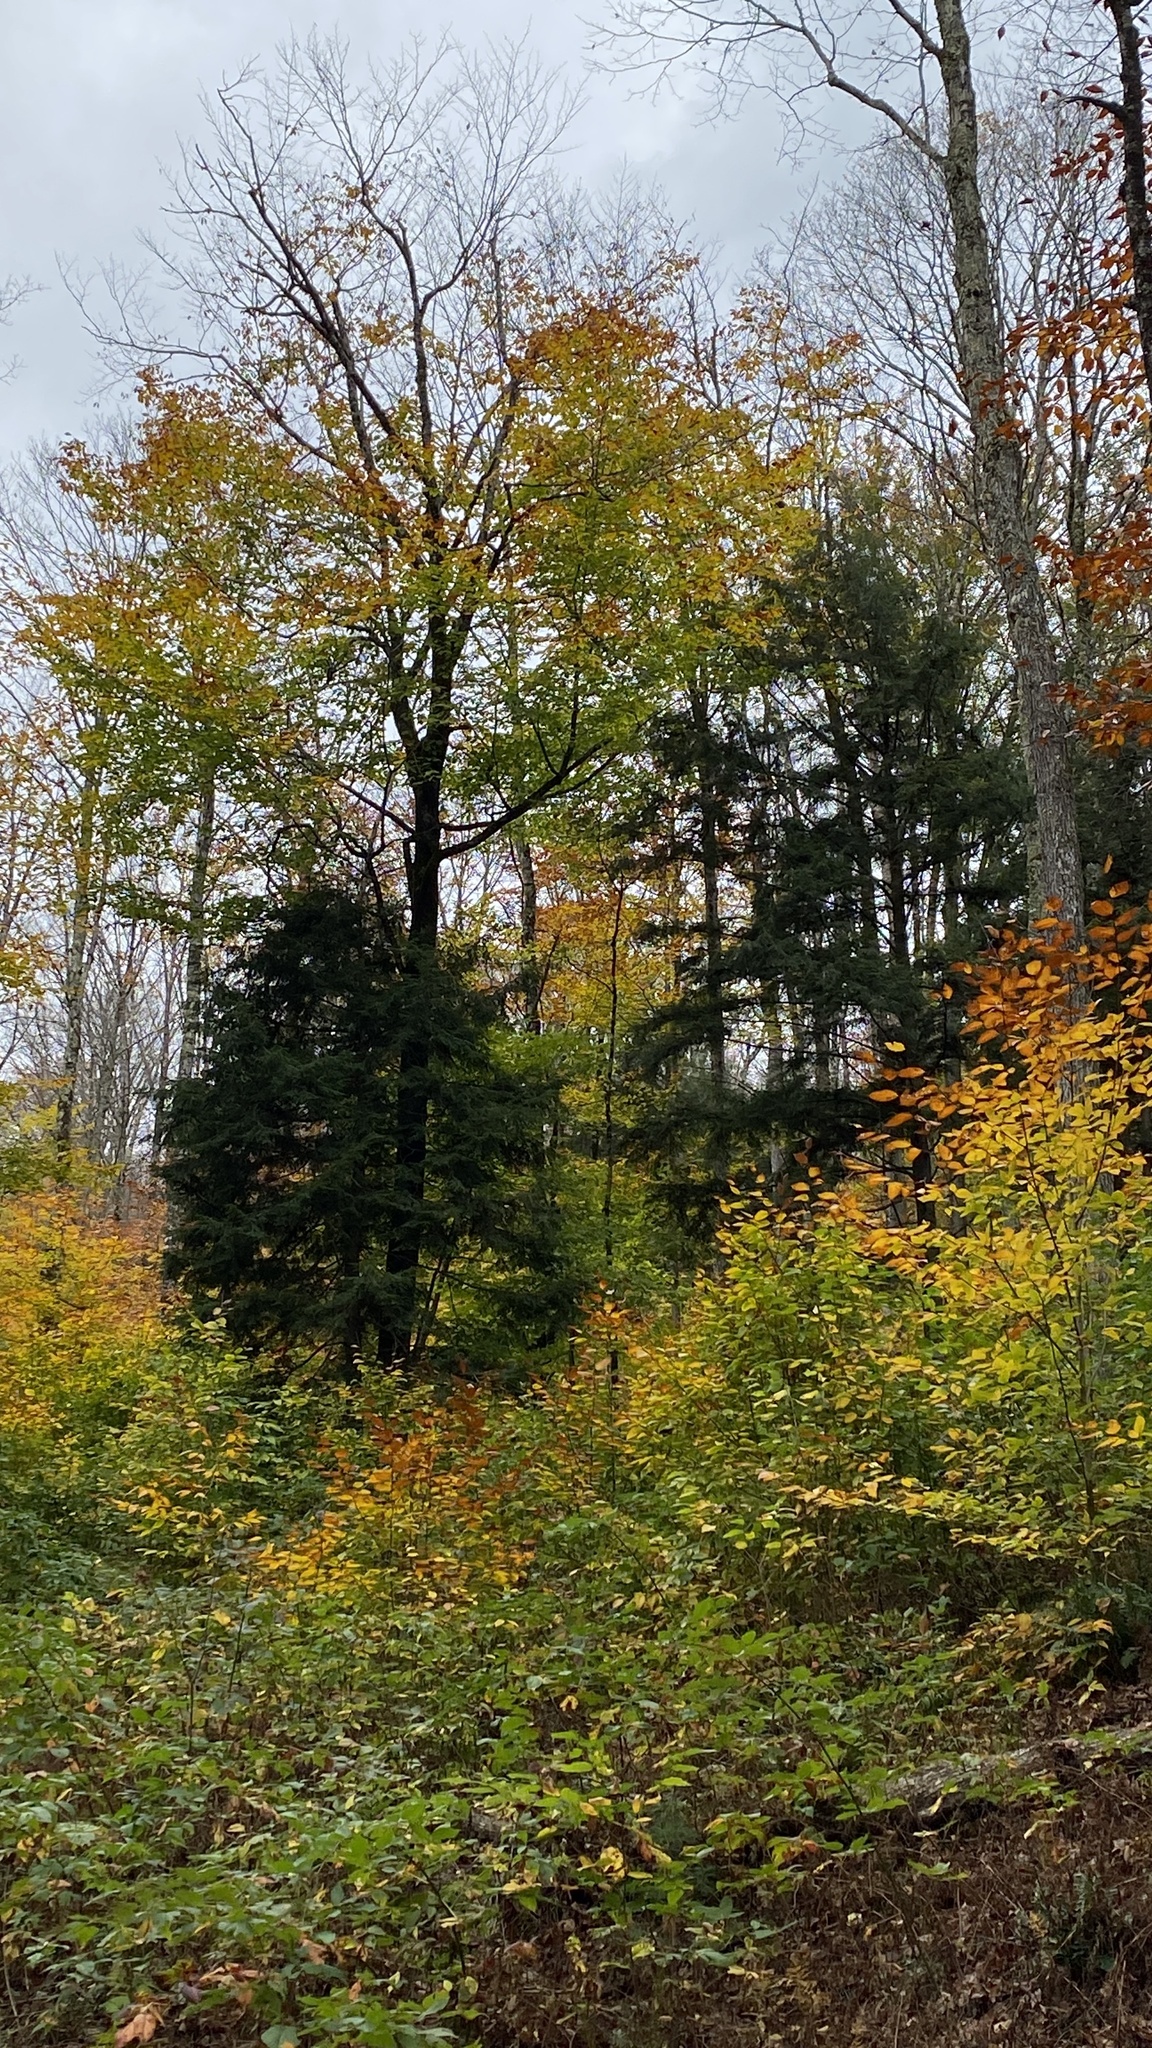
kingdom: Plantae
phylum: Tracheophyta
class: Magnoliopsida
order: Fagales
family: Fagaceae
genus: Fagus
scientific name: Fagus grandifolia
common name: American beech
